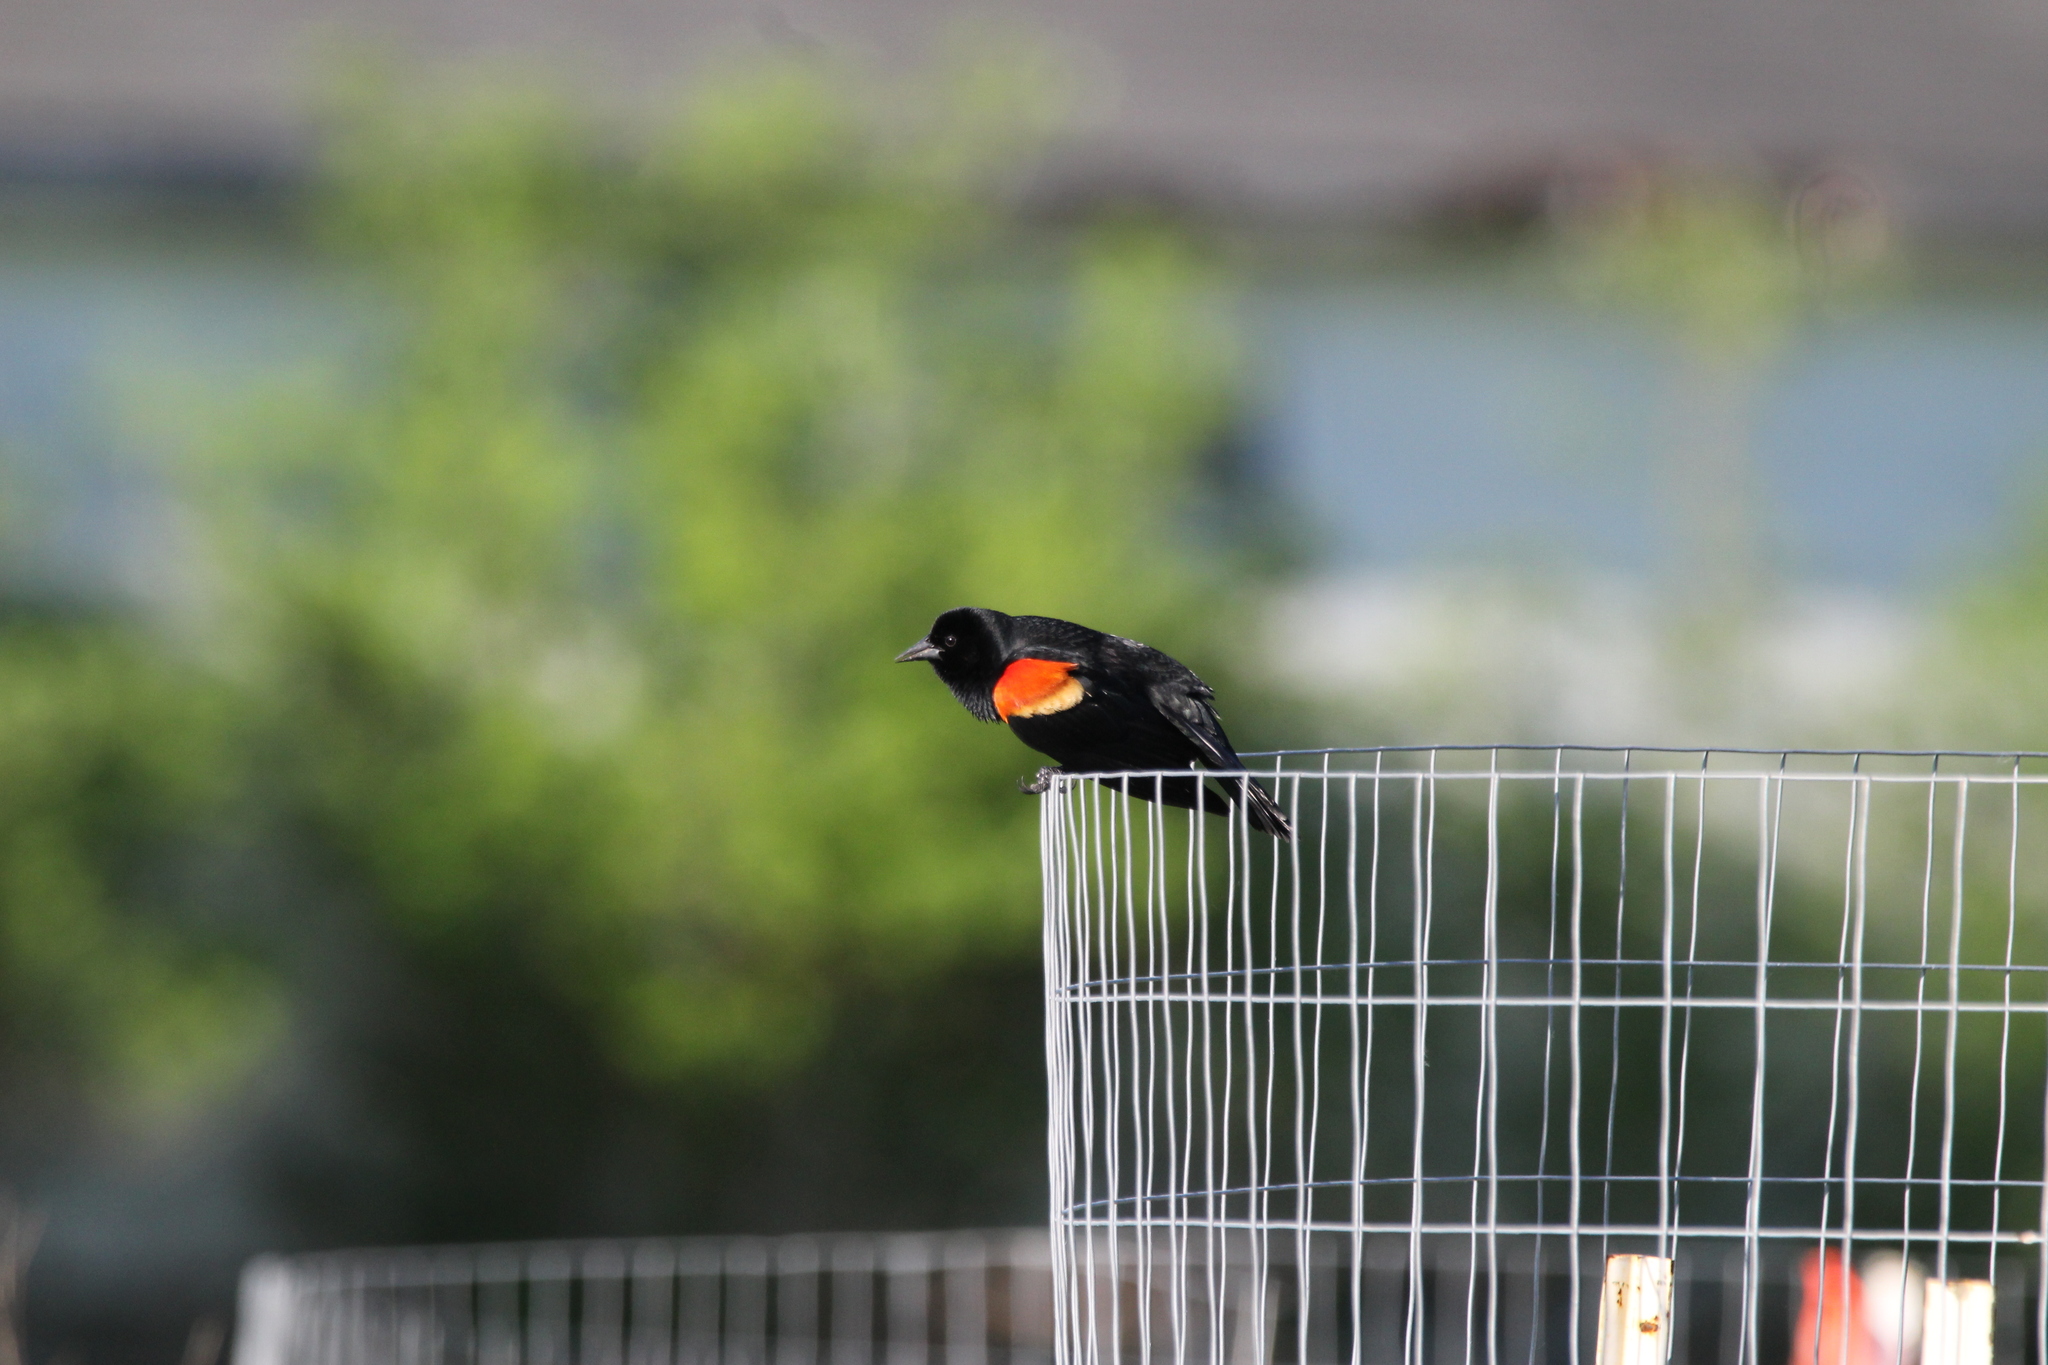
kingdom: Animalia
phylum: Chordata
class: Aves
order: Passeriformes
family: Icteridae
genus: Agelaius
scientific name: Agelaius phoeniceus
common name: Red-winged blackbird
